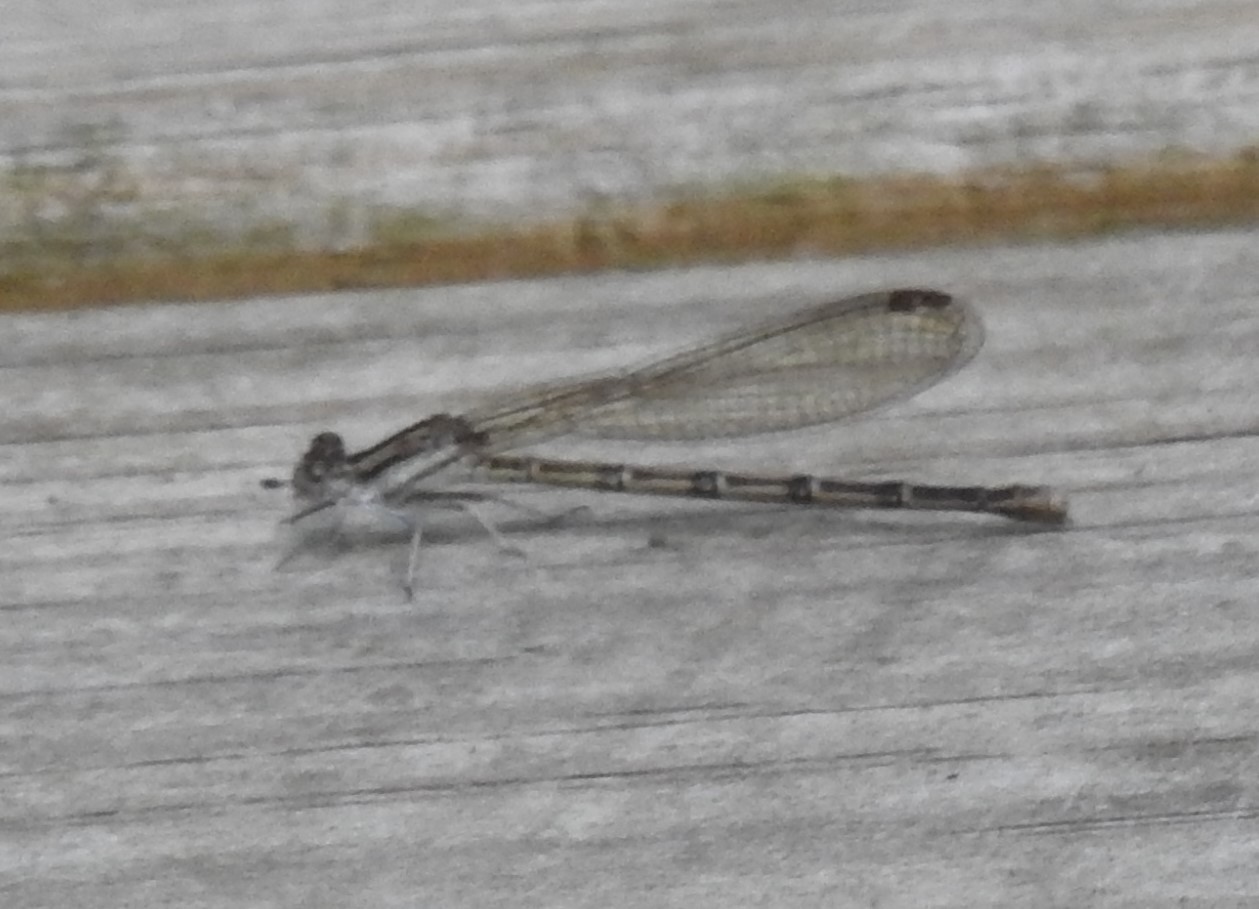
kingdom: Animalia
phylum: Arthropoda
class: Insecta
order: Odonata
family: Coenagrionidae
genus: Argia
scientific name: Argia fumipennis
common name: Variable dancer
